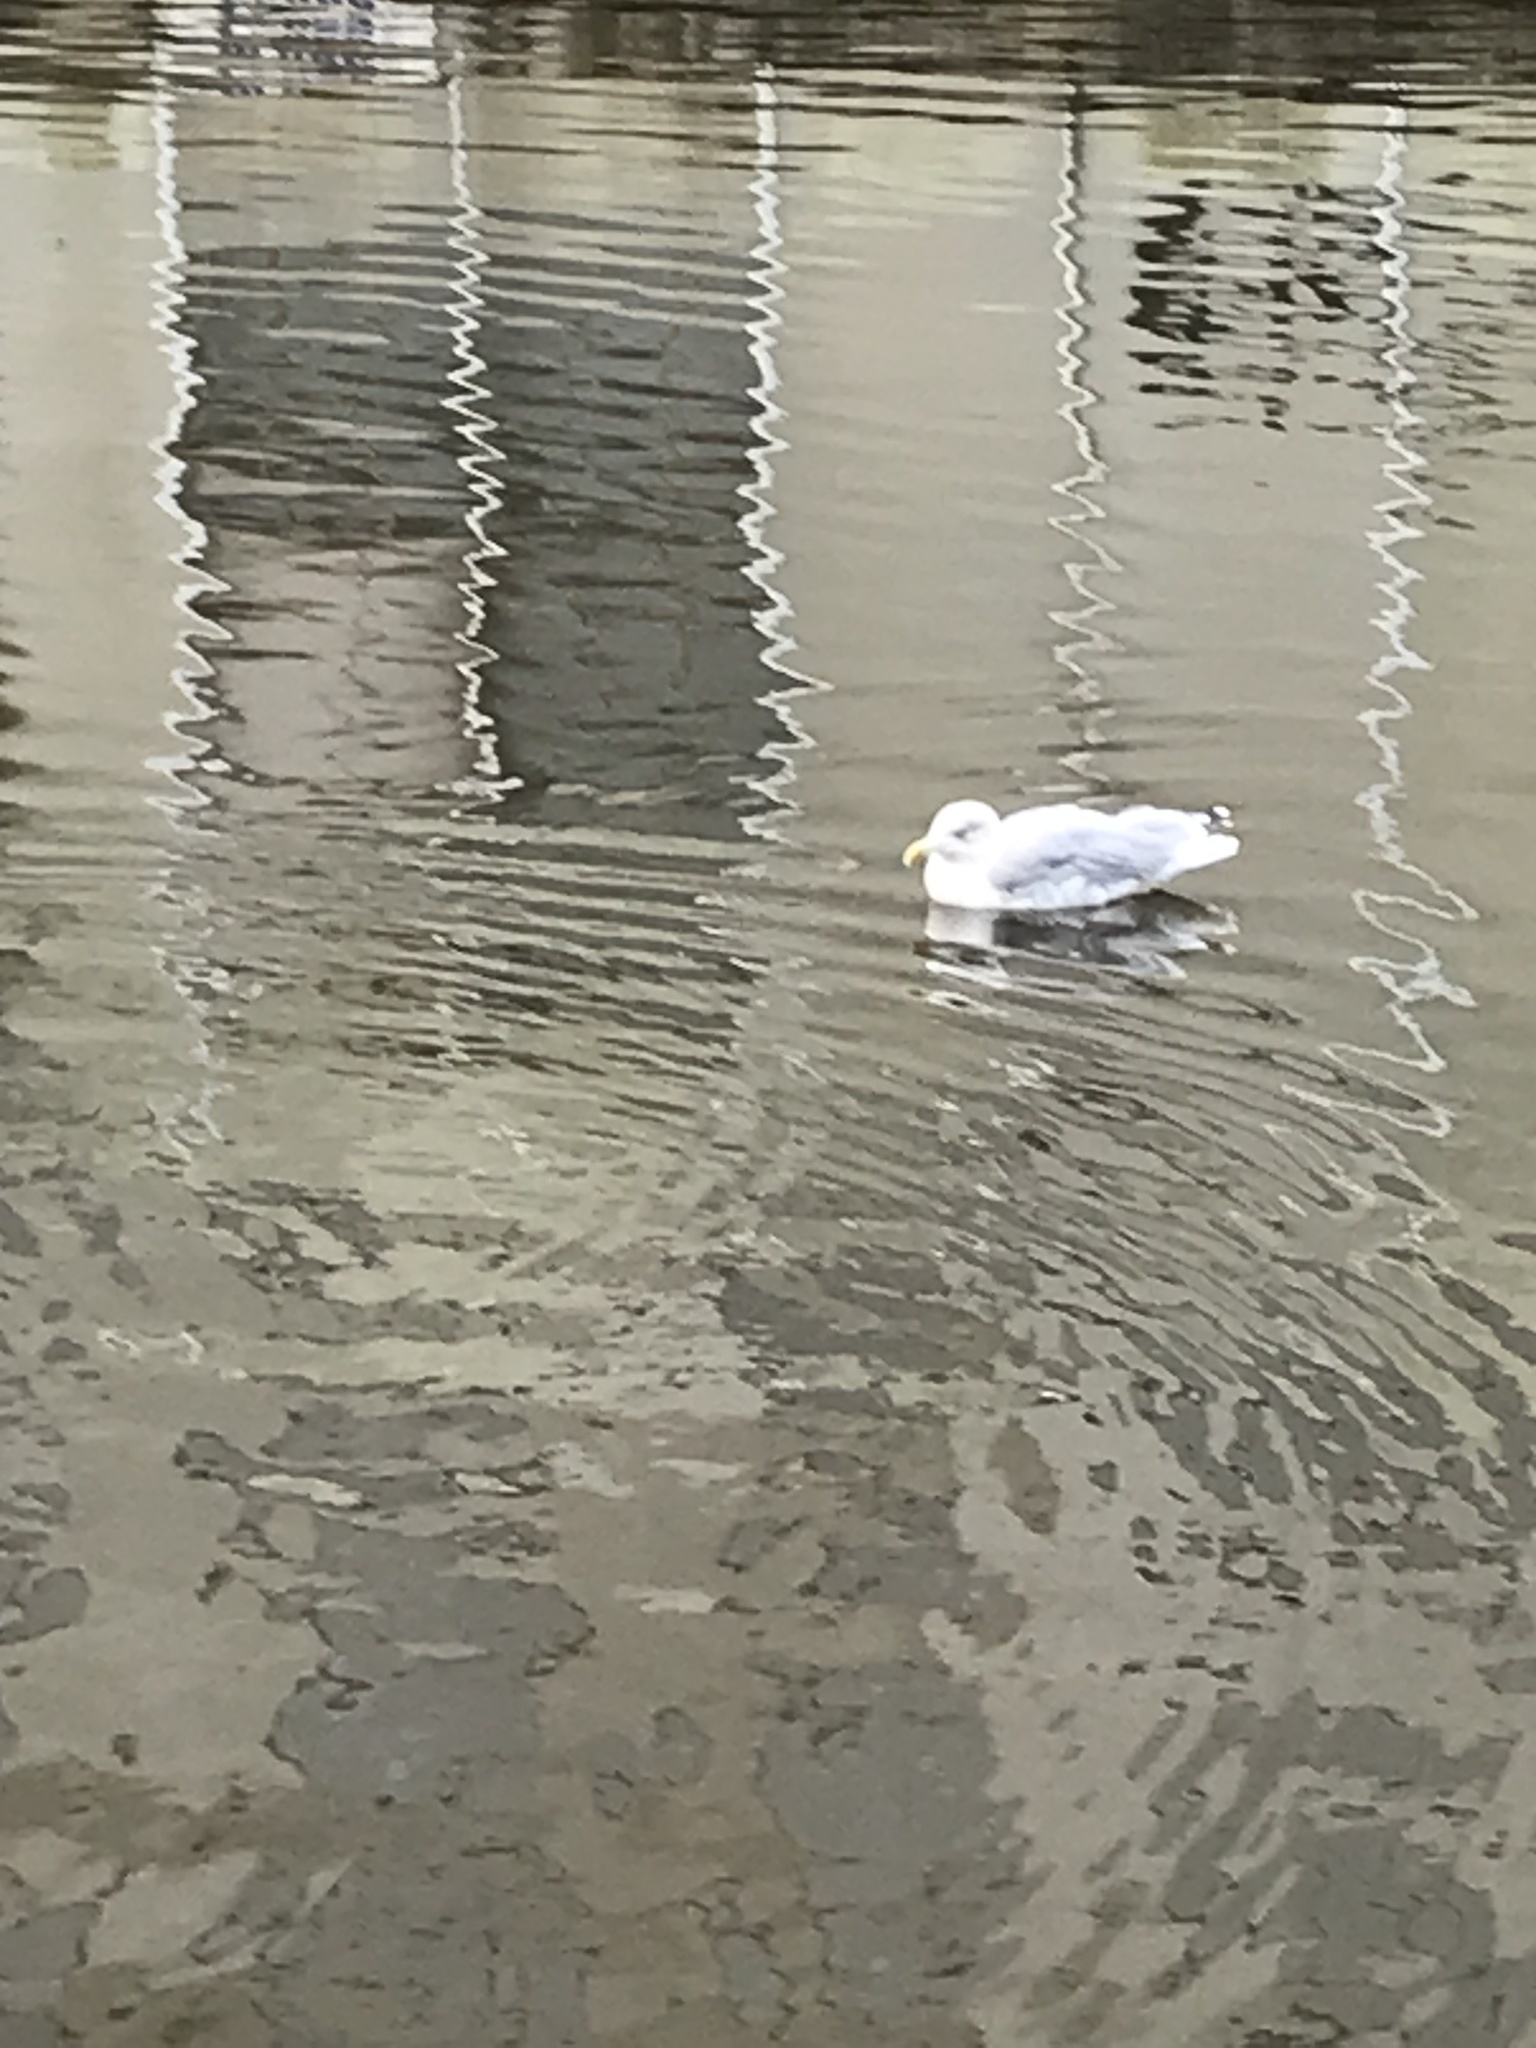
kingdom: Animalia
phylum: Chordata
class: Aves
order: Charadriiformes
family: Laridae
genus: Larus
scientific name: Larus argentatus
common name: Herring gull
